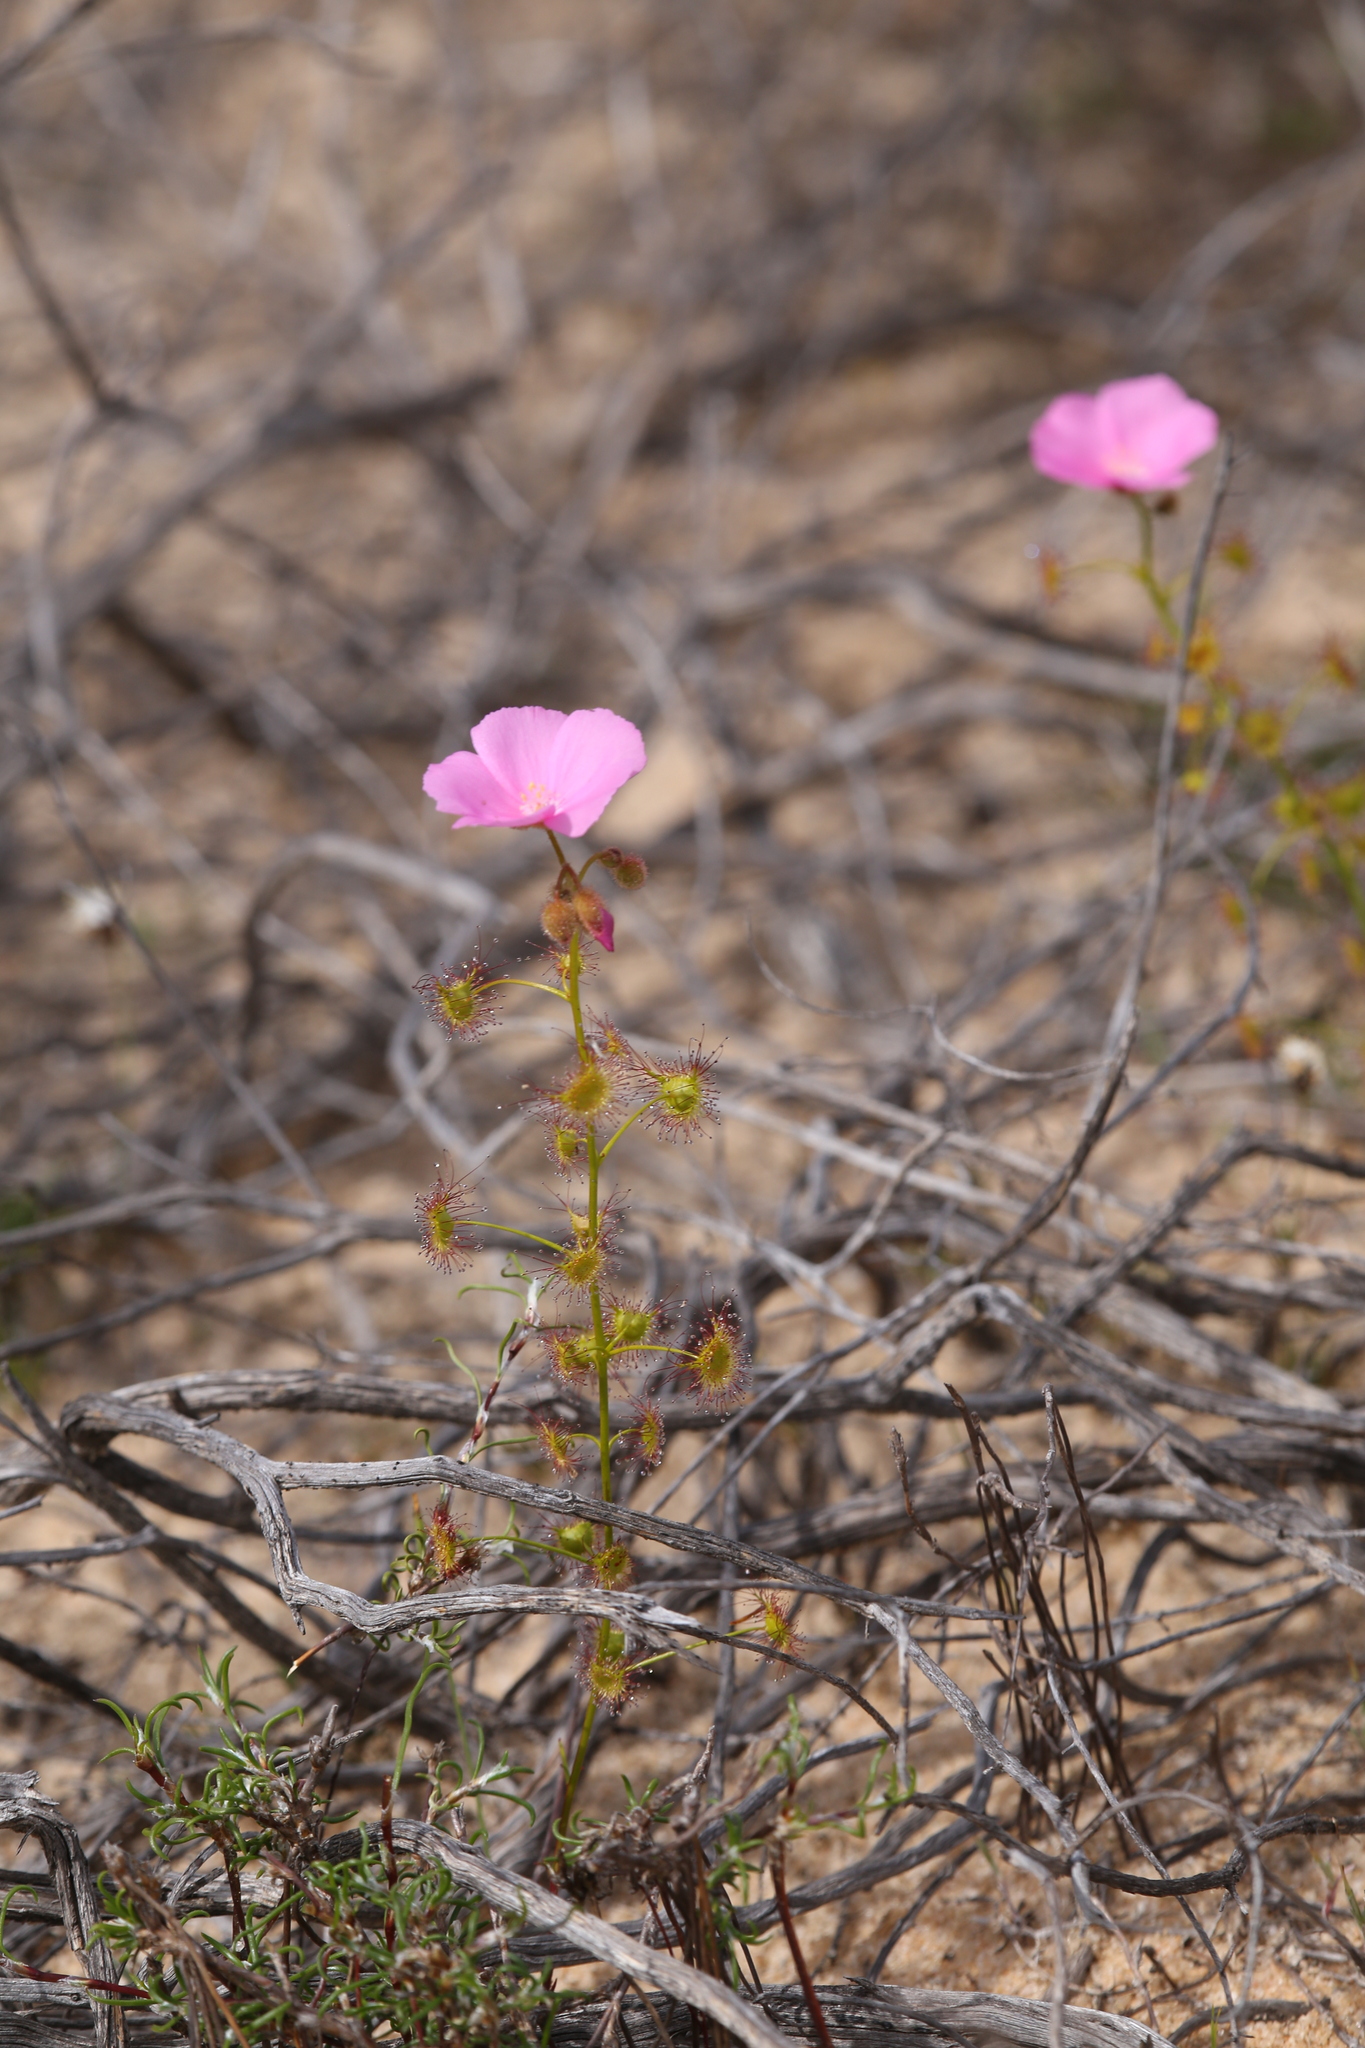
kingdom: Plantae
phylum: Tracheophyta
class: Magnoliopsida
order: Caryophyllales
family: Droseraceae
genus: Drosera
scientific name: Drosera neesii
